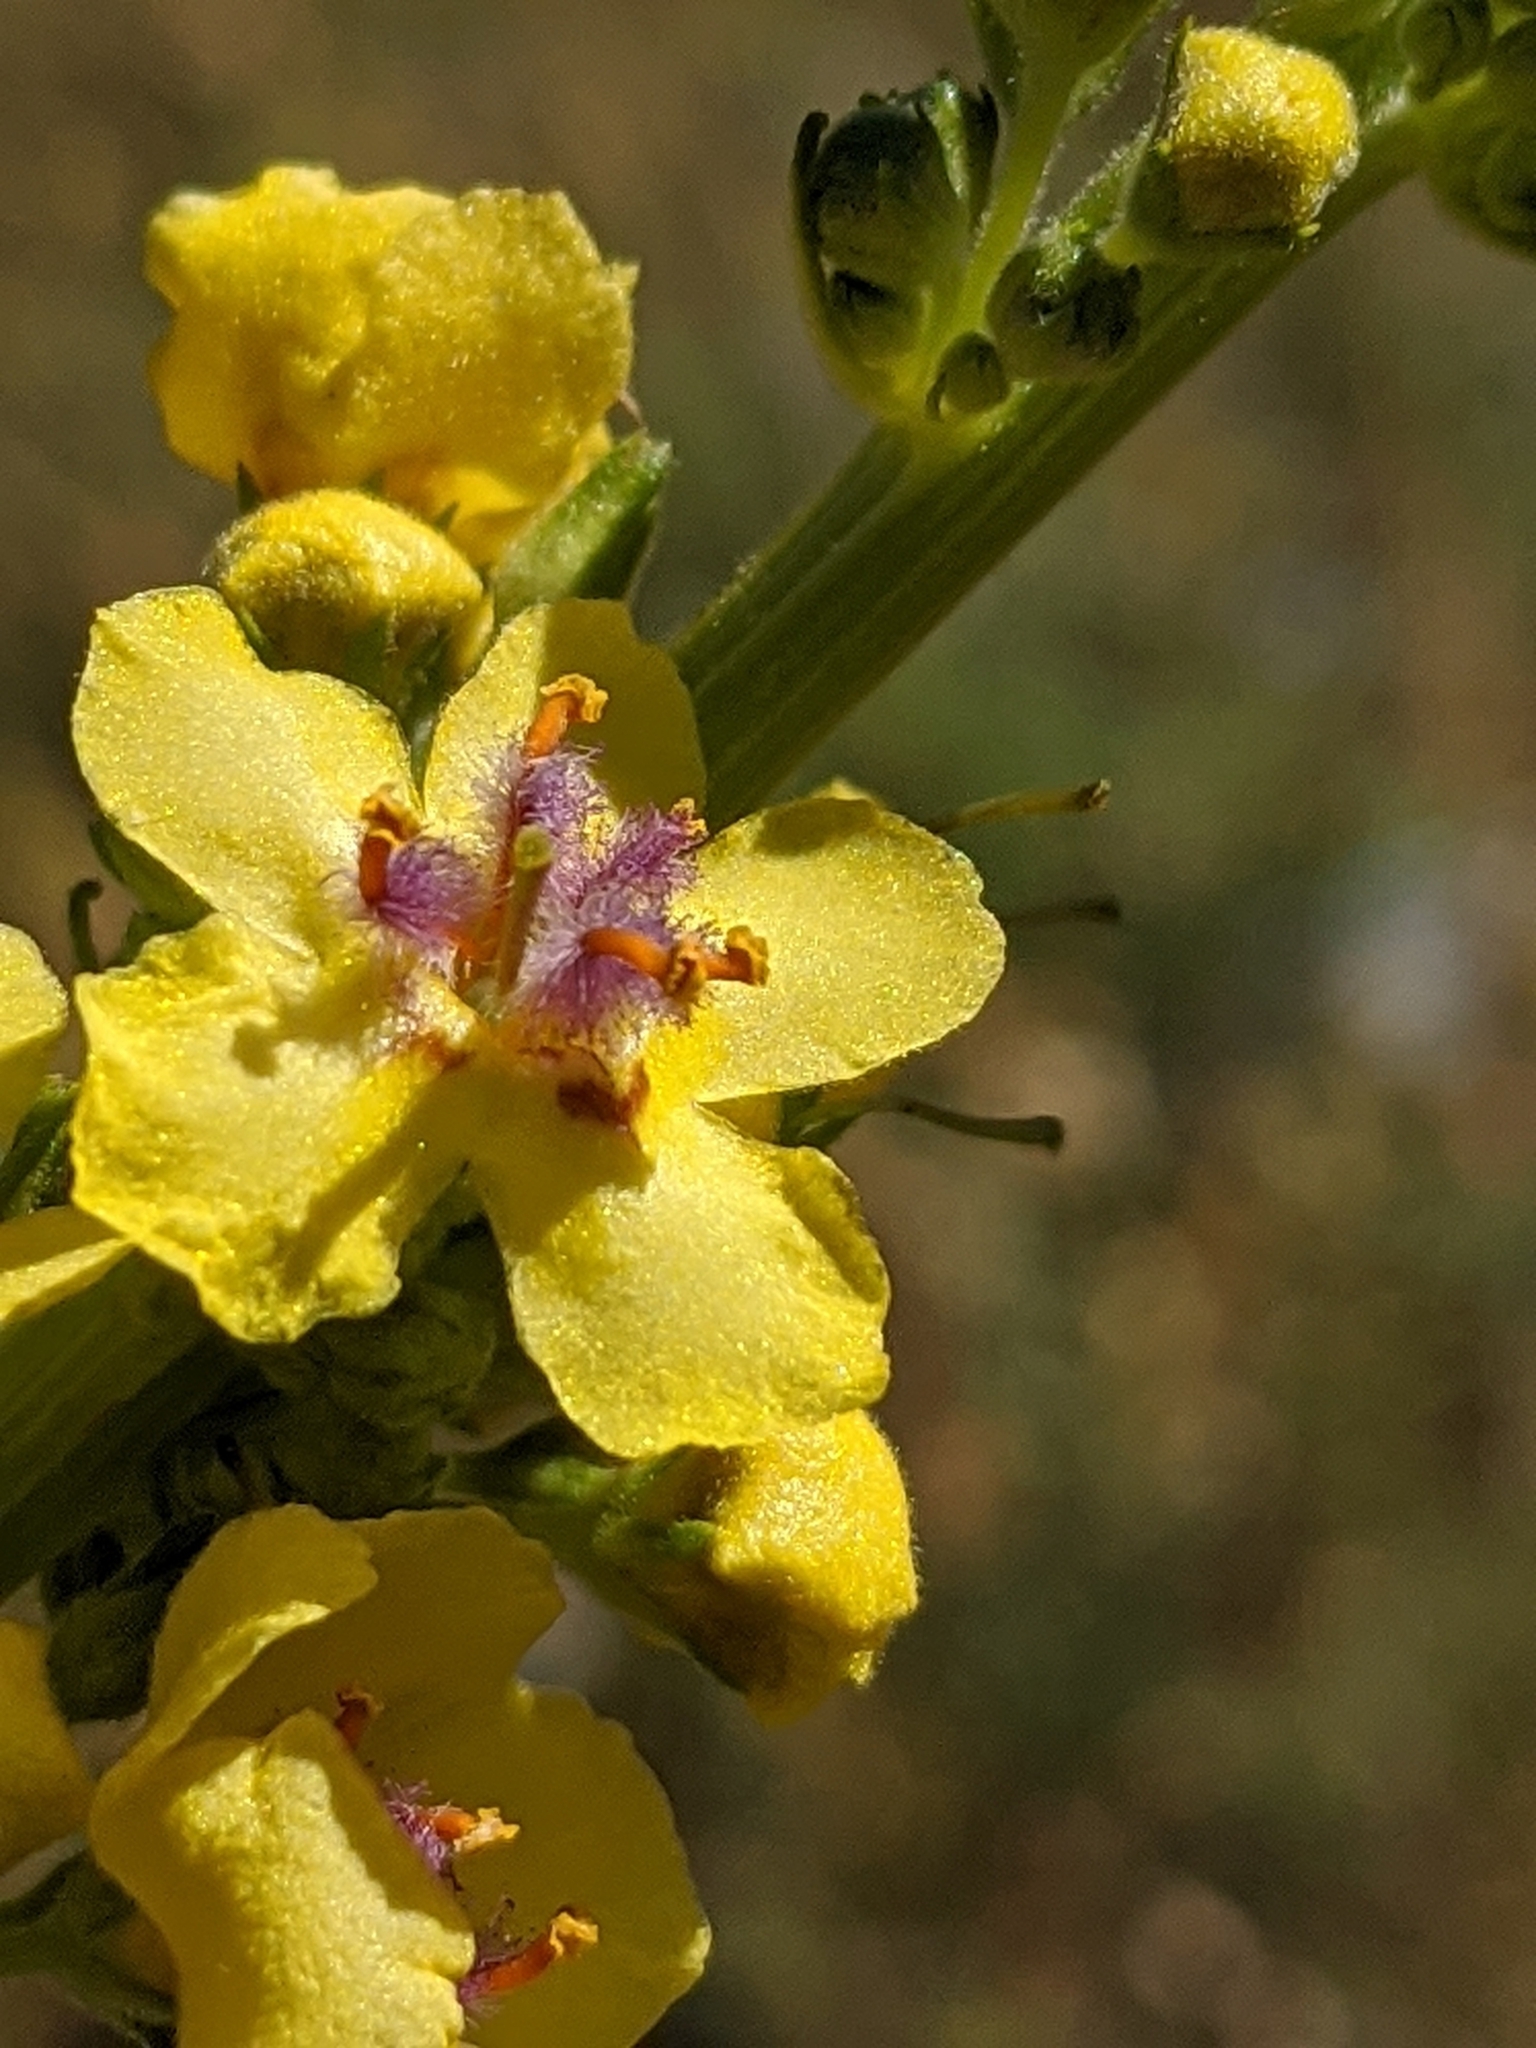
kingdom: Plantae
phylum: Tracheophyta
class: Magnoliopsida
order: Lamiales
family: Scrophulariaceae
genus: Verbascum
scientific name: Verbascum nigrum
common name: Dark mullein
